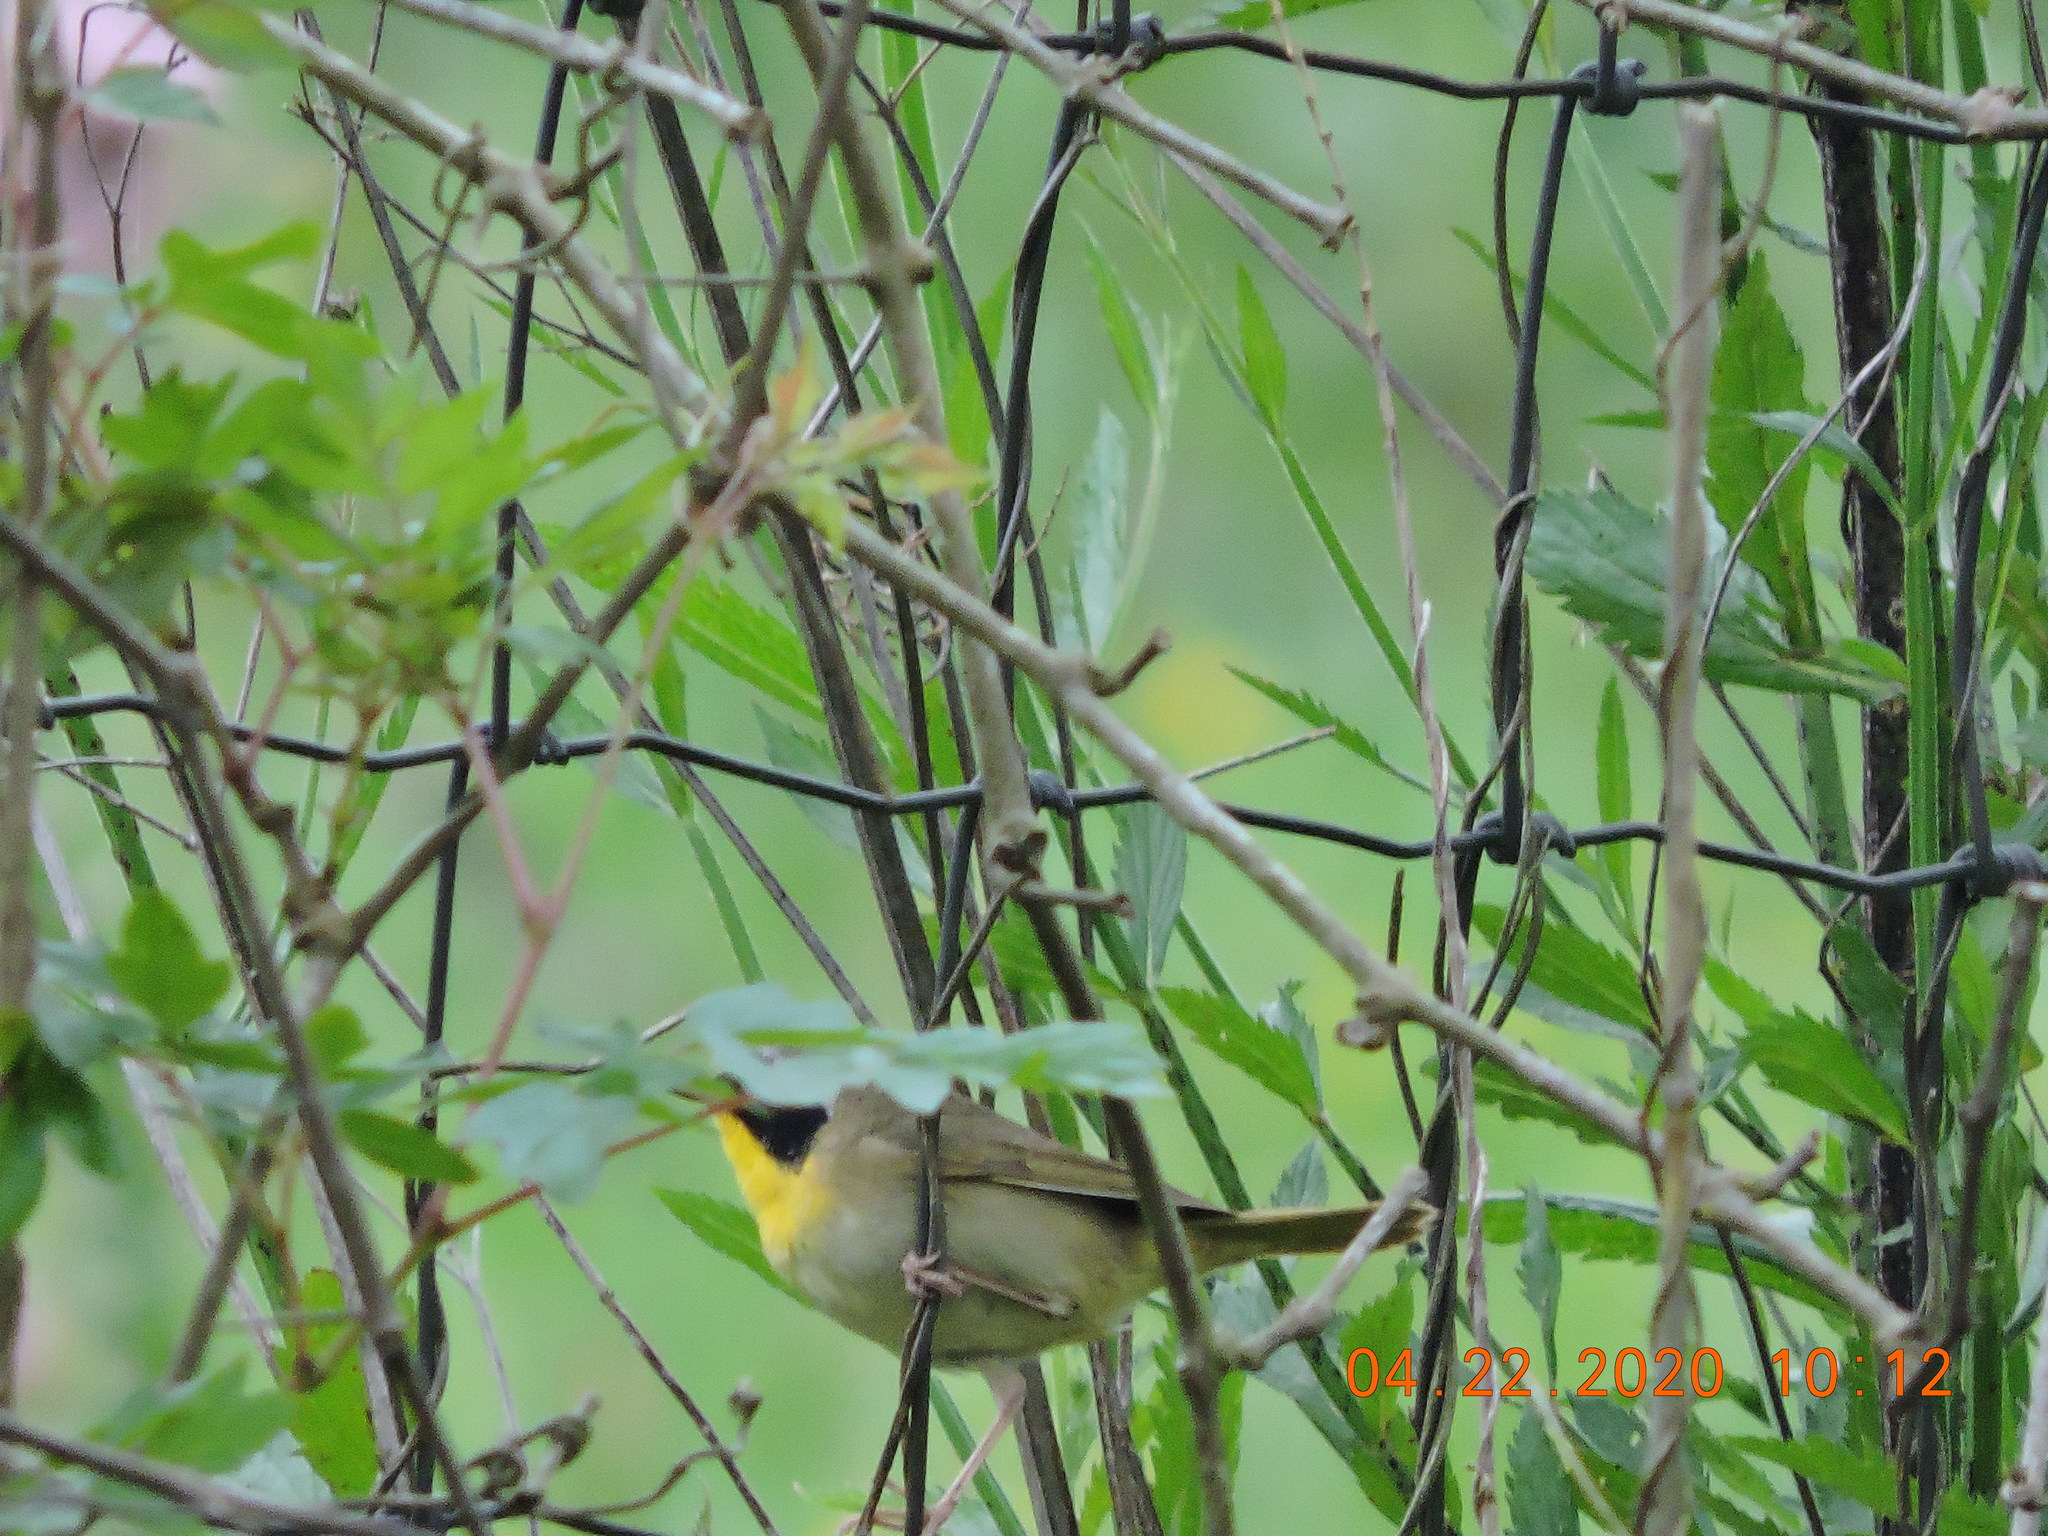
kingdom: Animalia
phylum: Chordata
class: Aves
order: Passeriformes
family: Parulidae
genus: Geothlypis
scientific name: Geothlypis trichas
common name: Common yellowthroat
